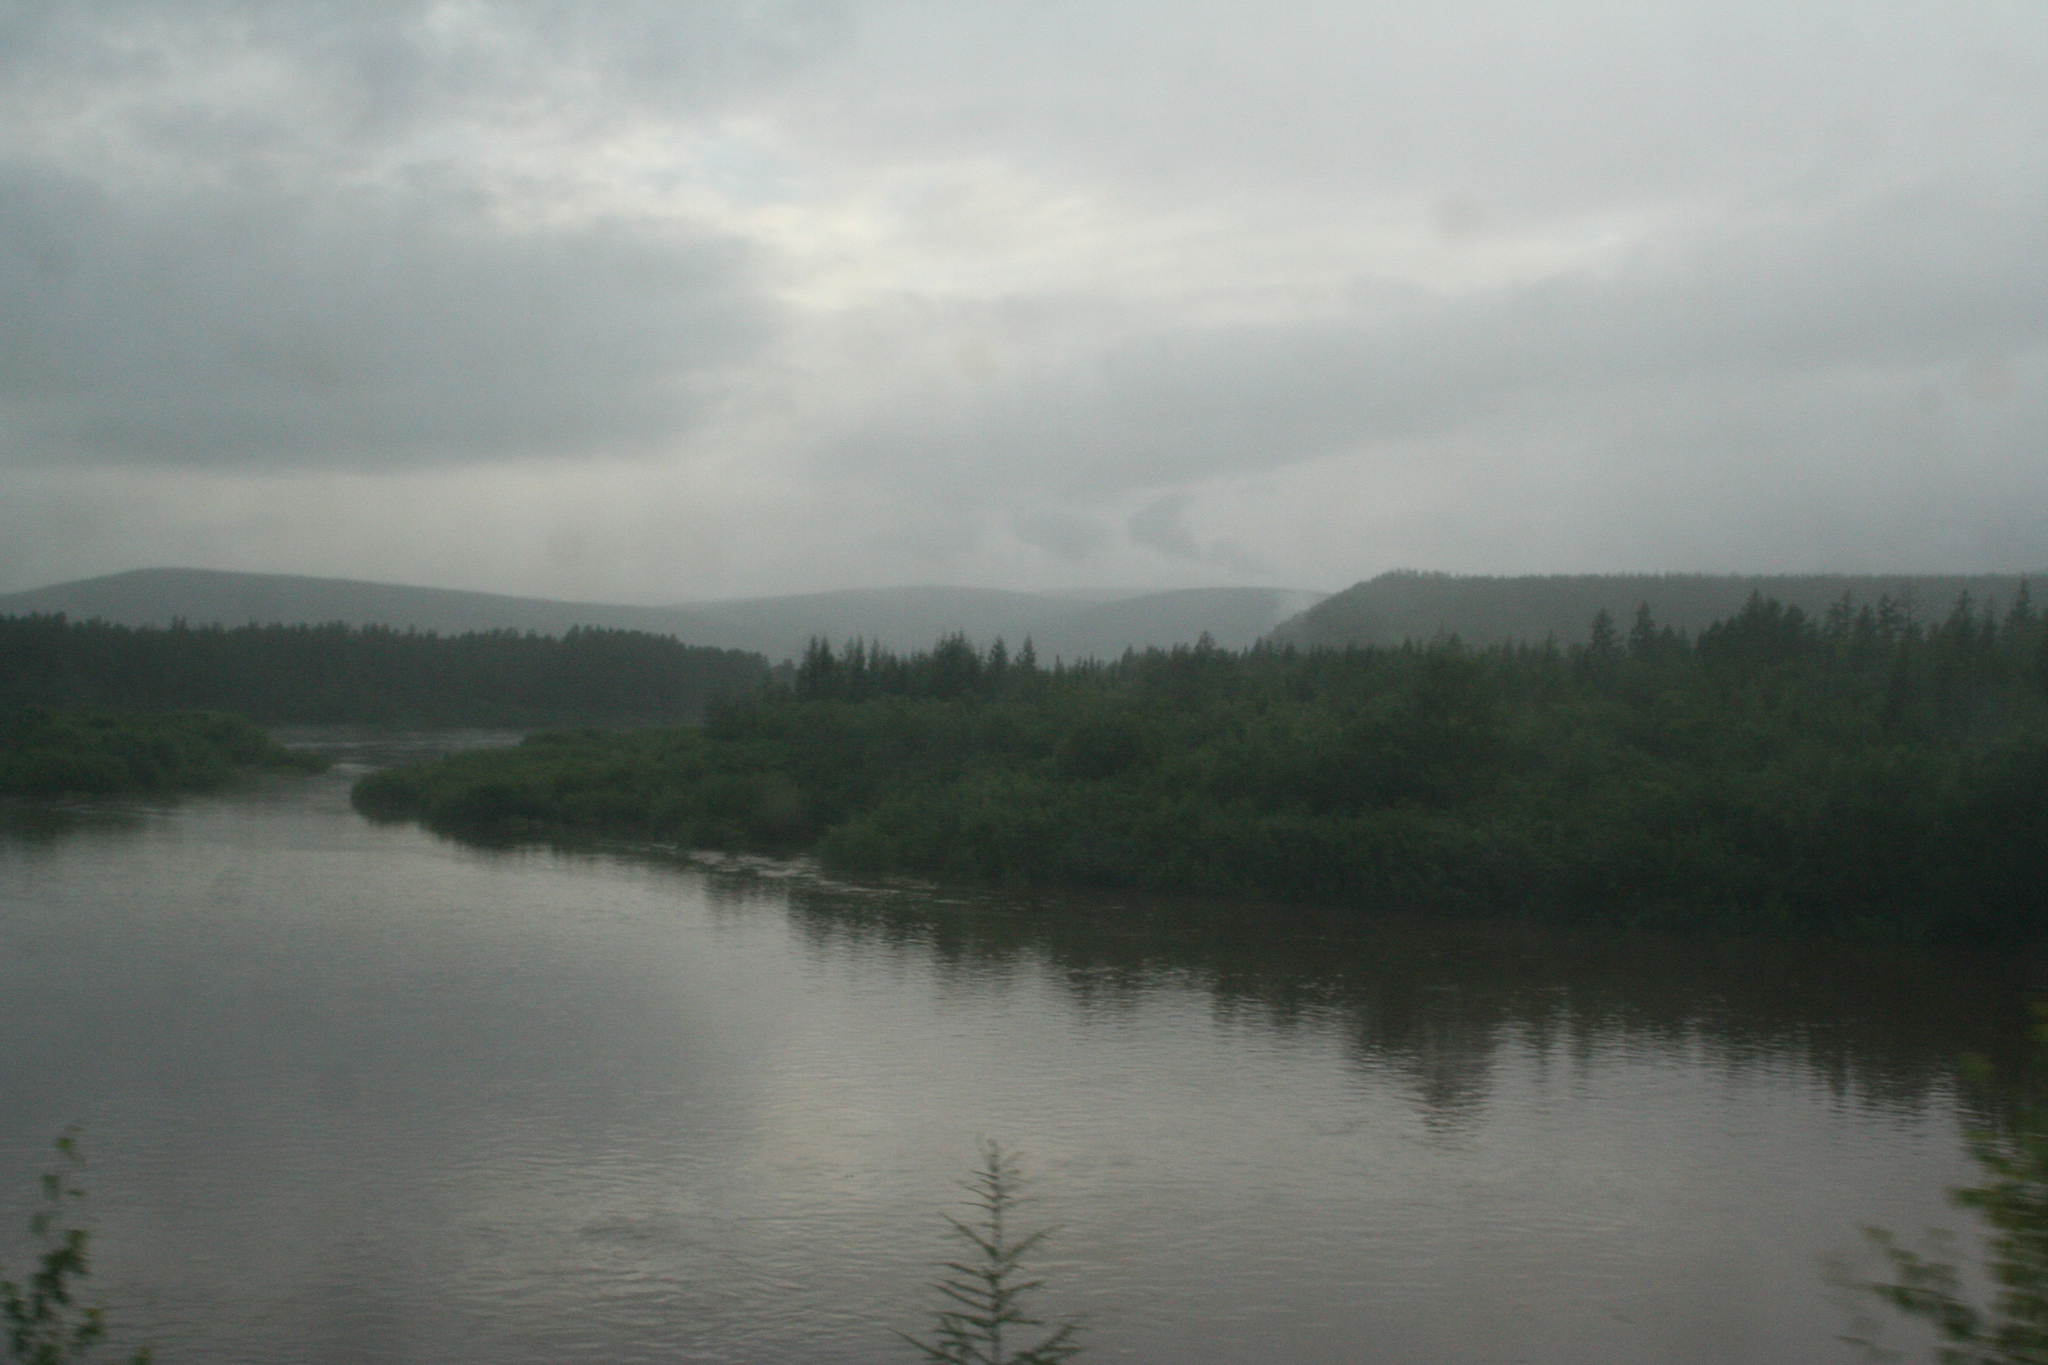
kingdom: Plantae
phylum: Tracheophyta
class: Pinopsida
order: Pinales
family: Pinaceae
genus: Larix
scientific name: Larix gmelinii
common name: Dahurian larch
